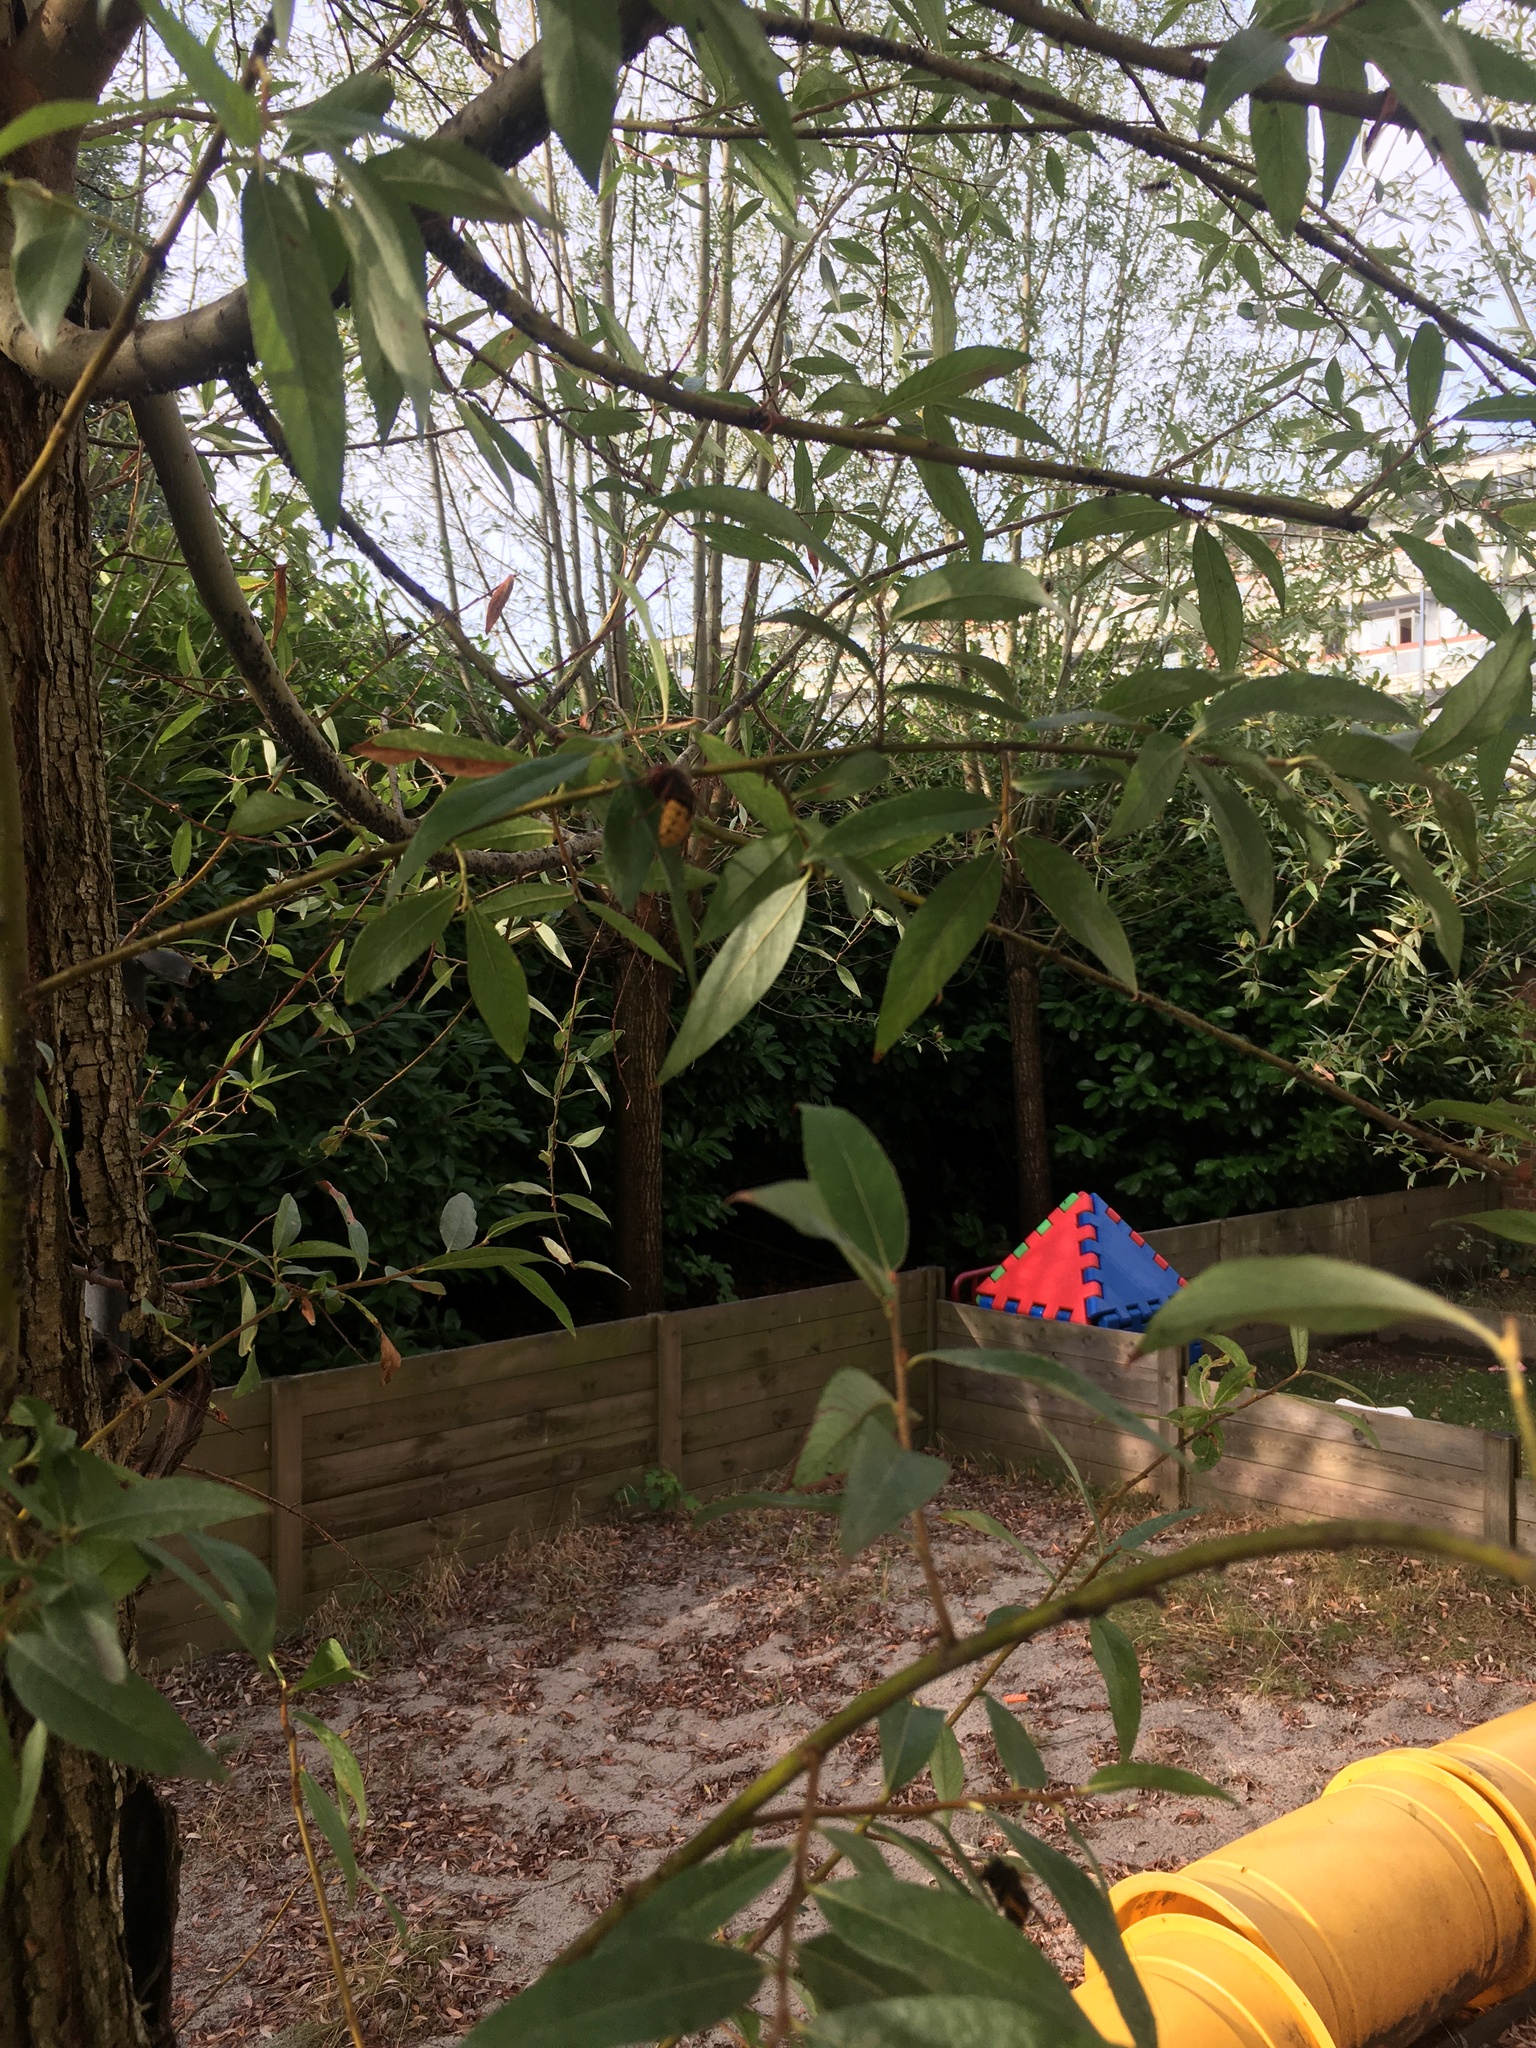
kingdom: Animalia
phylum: Arthropoda
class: Insecta
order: Hymenoptera
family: Vespidae
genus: Vespa
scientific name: Vespa crabro
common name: Hornet
